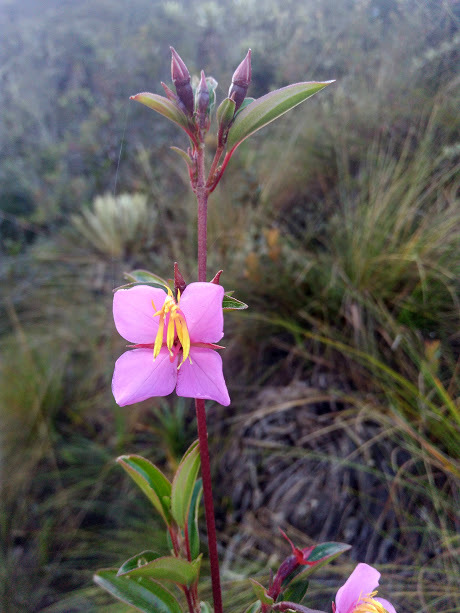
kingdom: Plantae
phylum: Tracheophyta
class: Magnoliopsida
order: Myrtales
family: Melastomataceae
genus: Monochaetum
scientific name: Monochaetum myrtoideum
